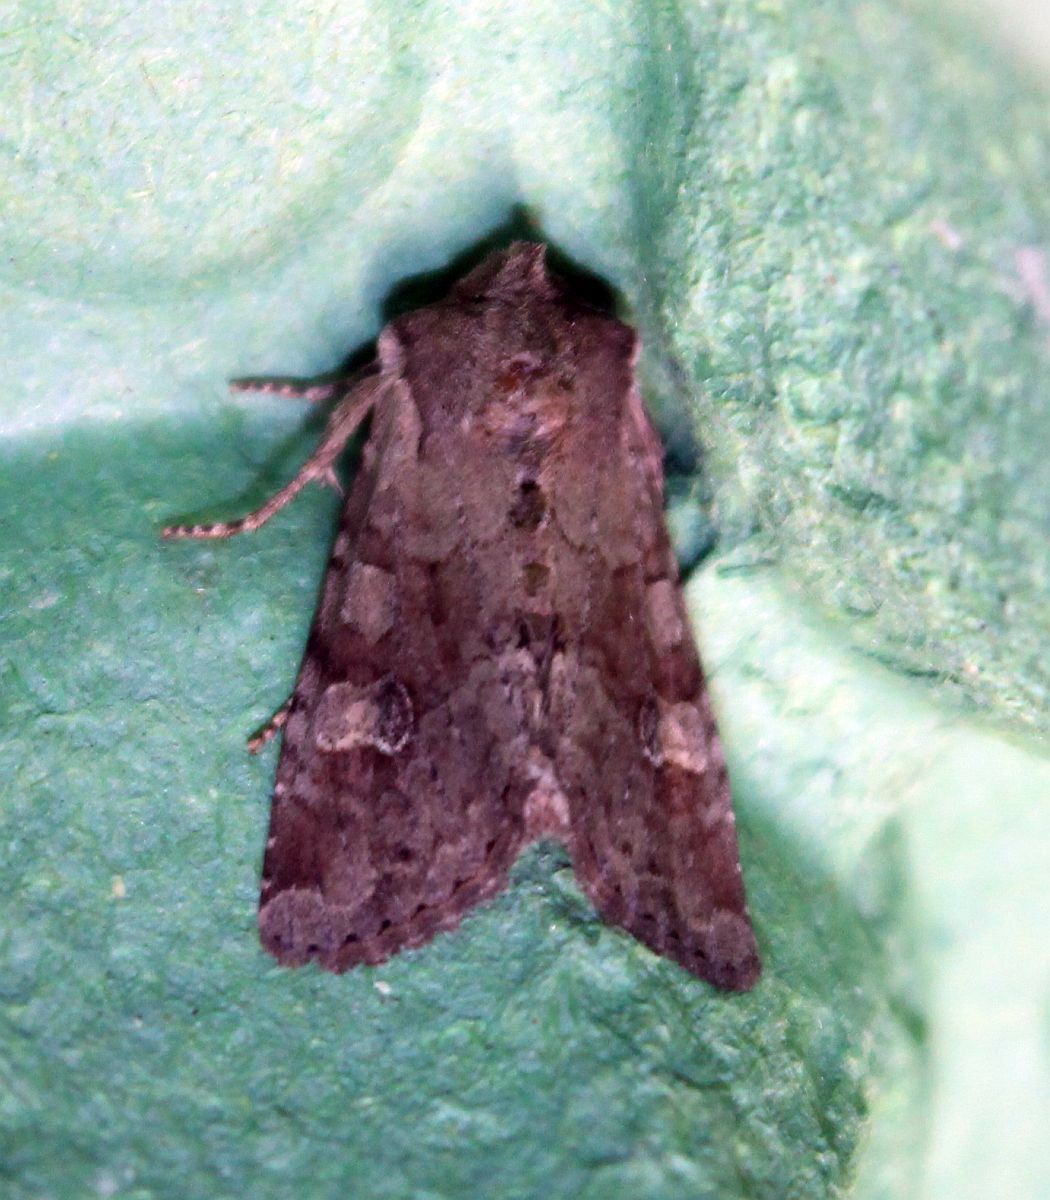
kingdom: Animalia
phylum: Arthropoda
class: Insecta
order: Lepidoptera
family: Noctuidae
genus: Apamea
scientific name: Apamea sordens
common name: Rustic shoulder-knot
